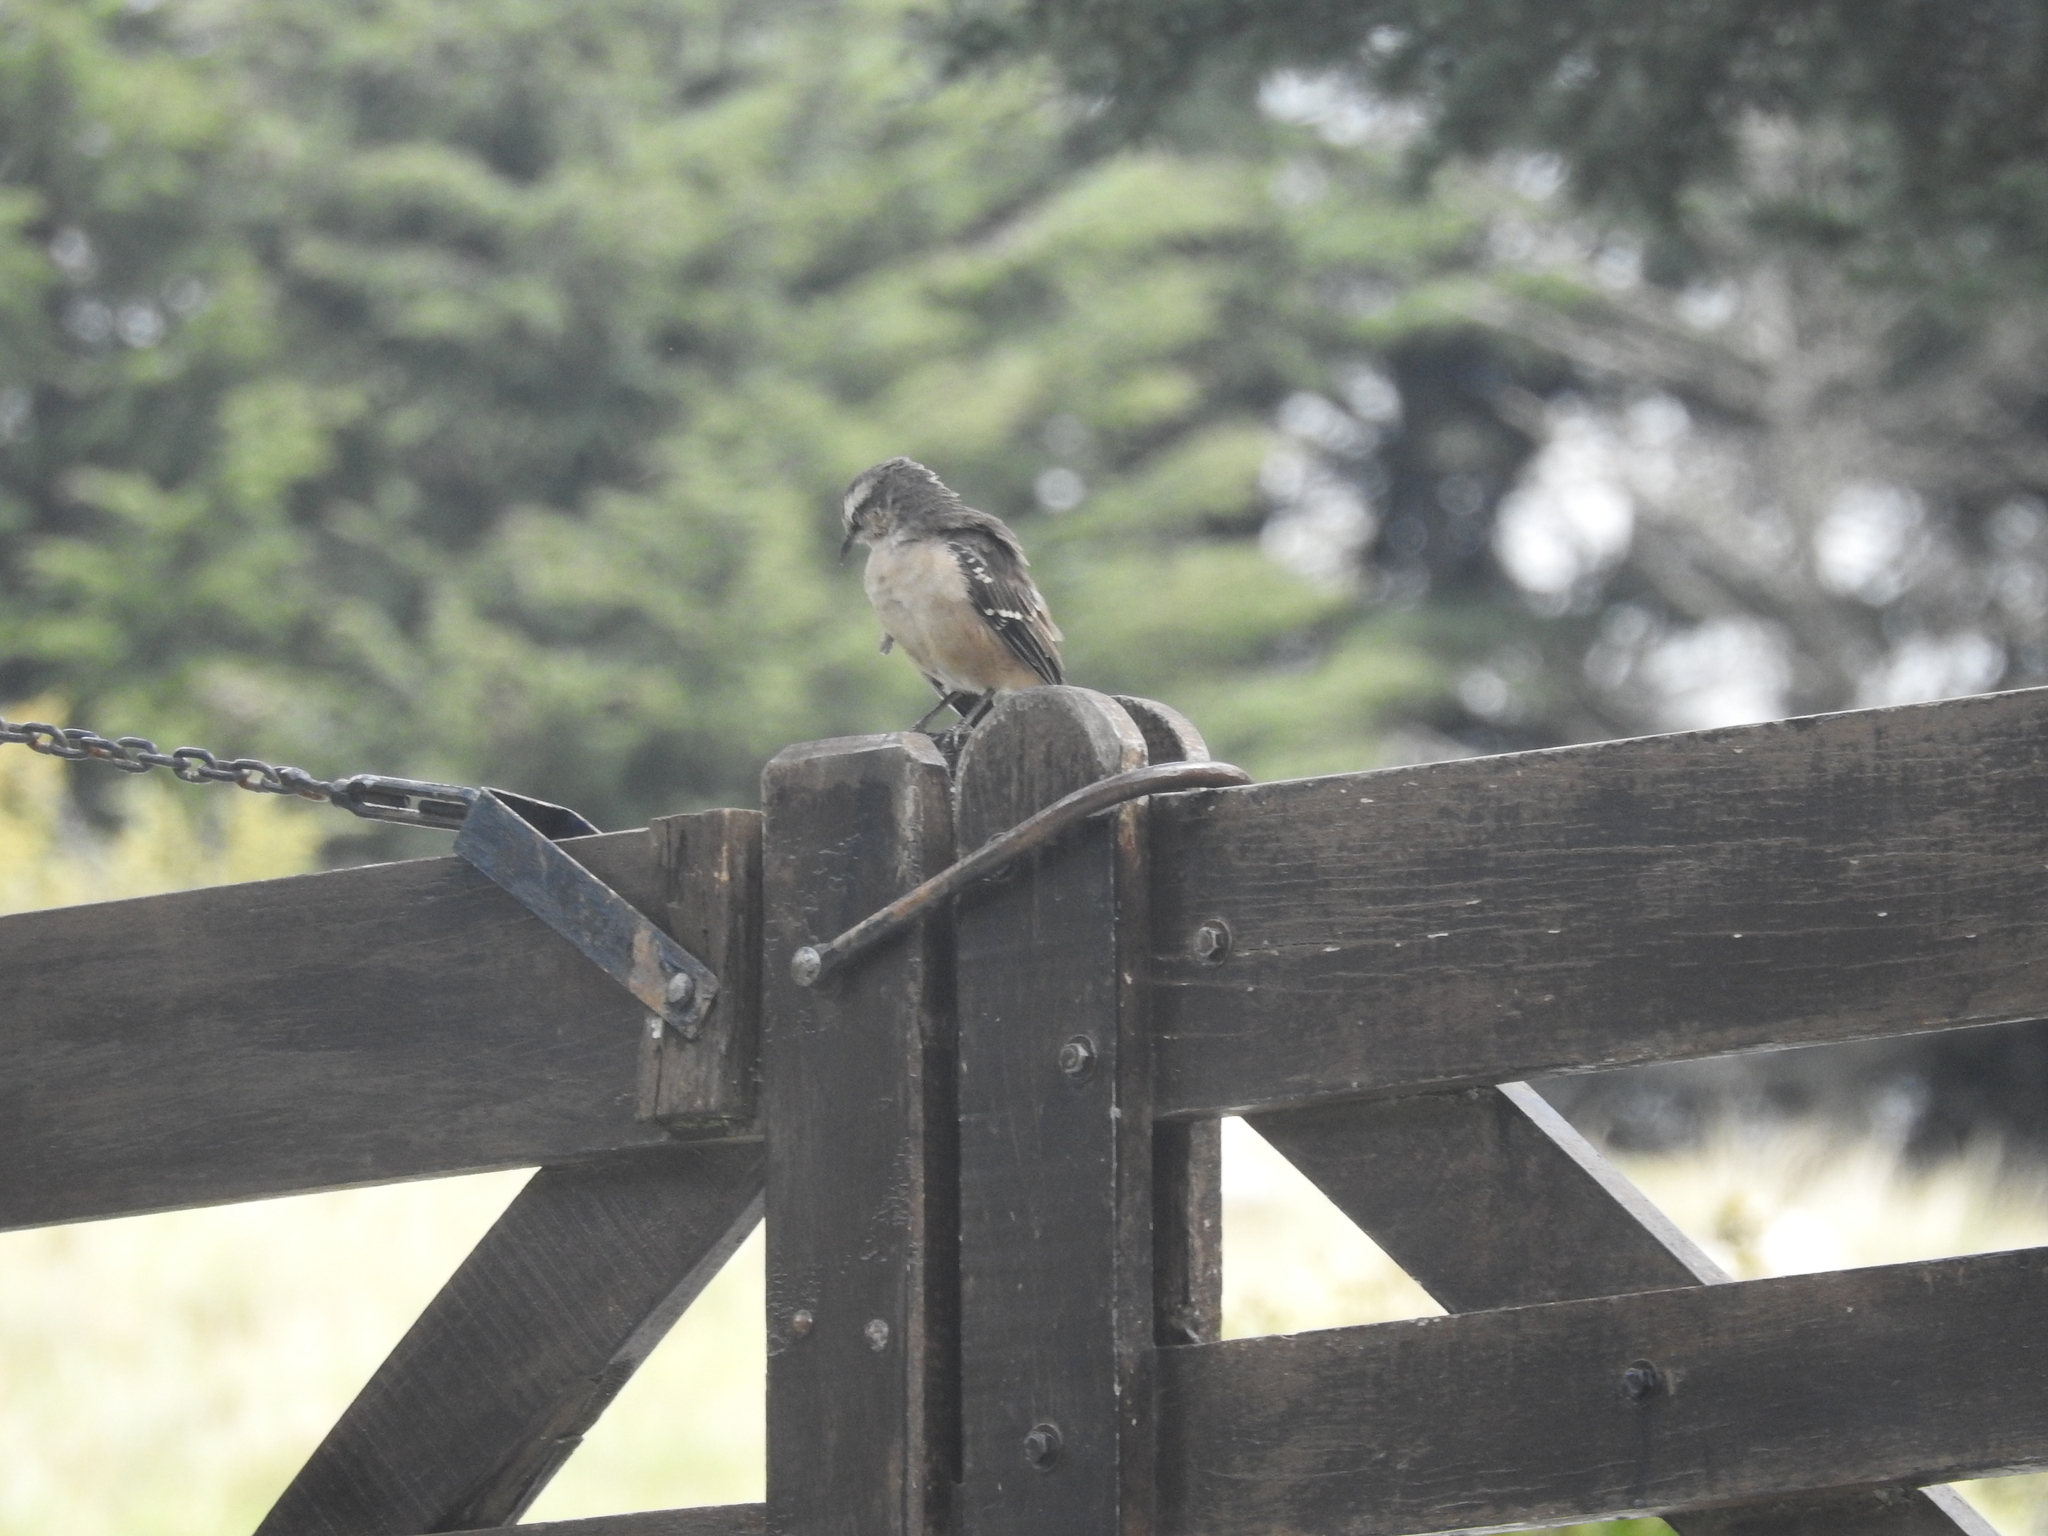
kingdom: Animalia
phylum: Chordata
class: Aves
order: Passeriformes
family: Mimidae
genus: Mimus
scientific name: Mimus saturninus
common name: Chalk-browed mockingbird
